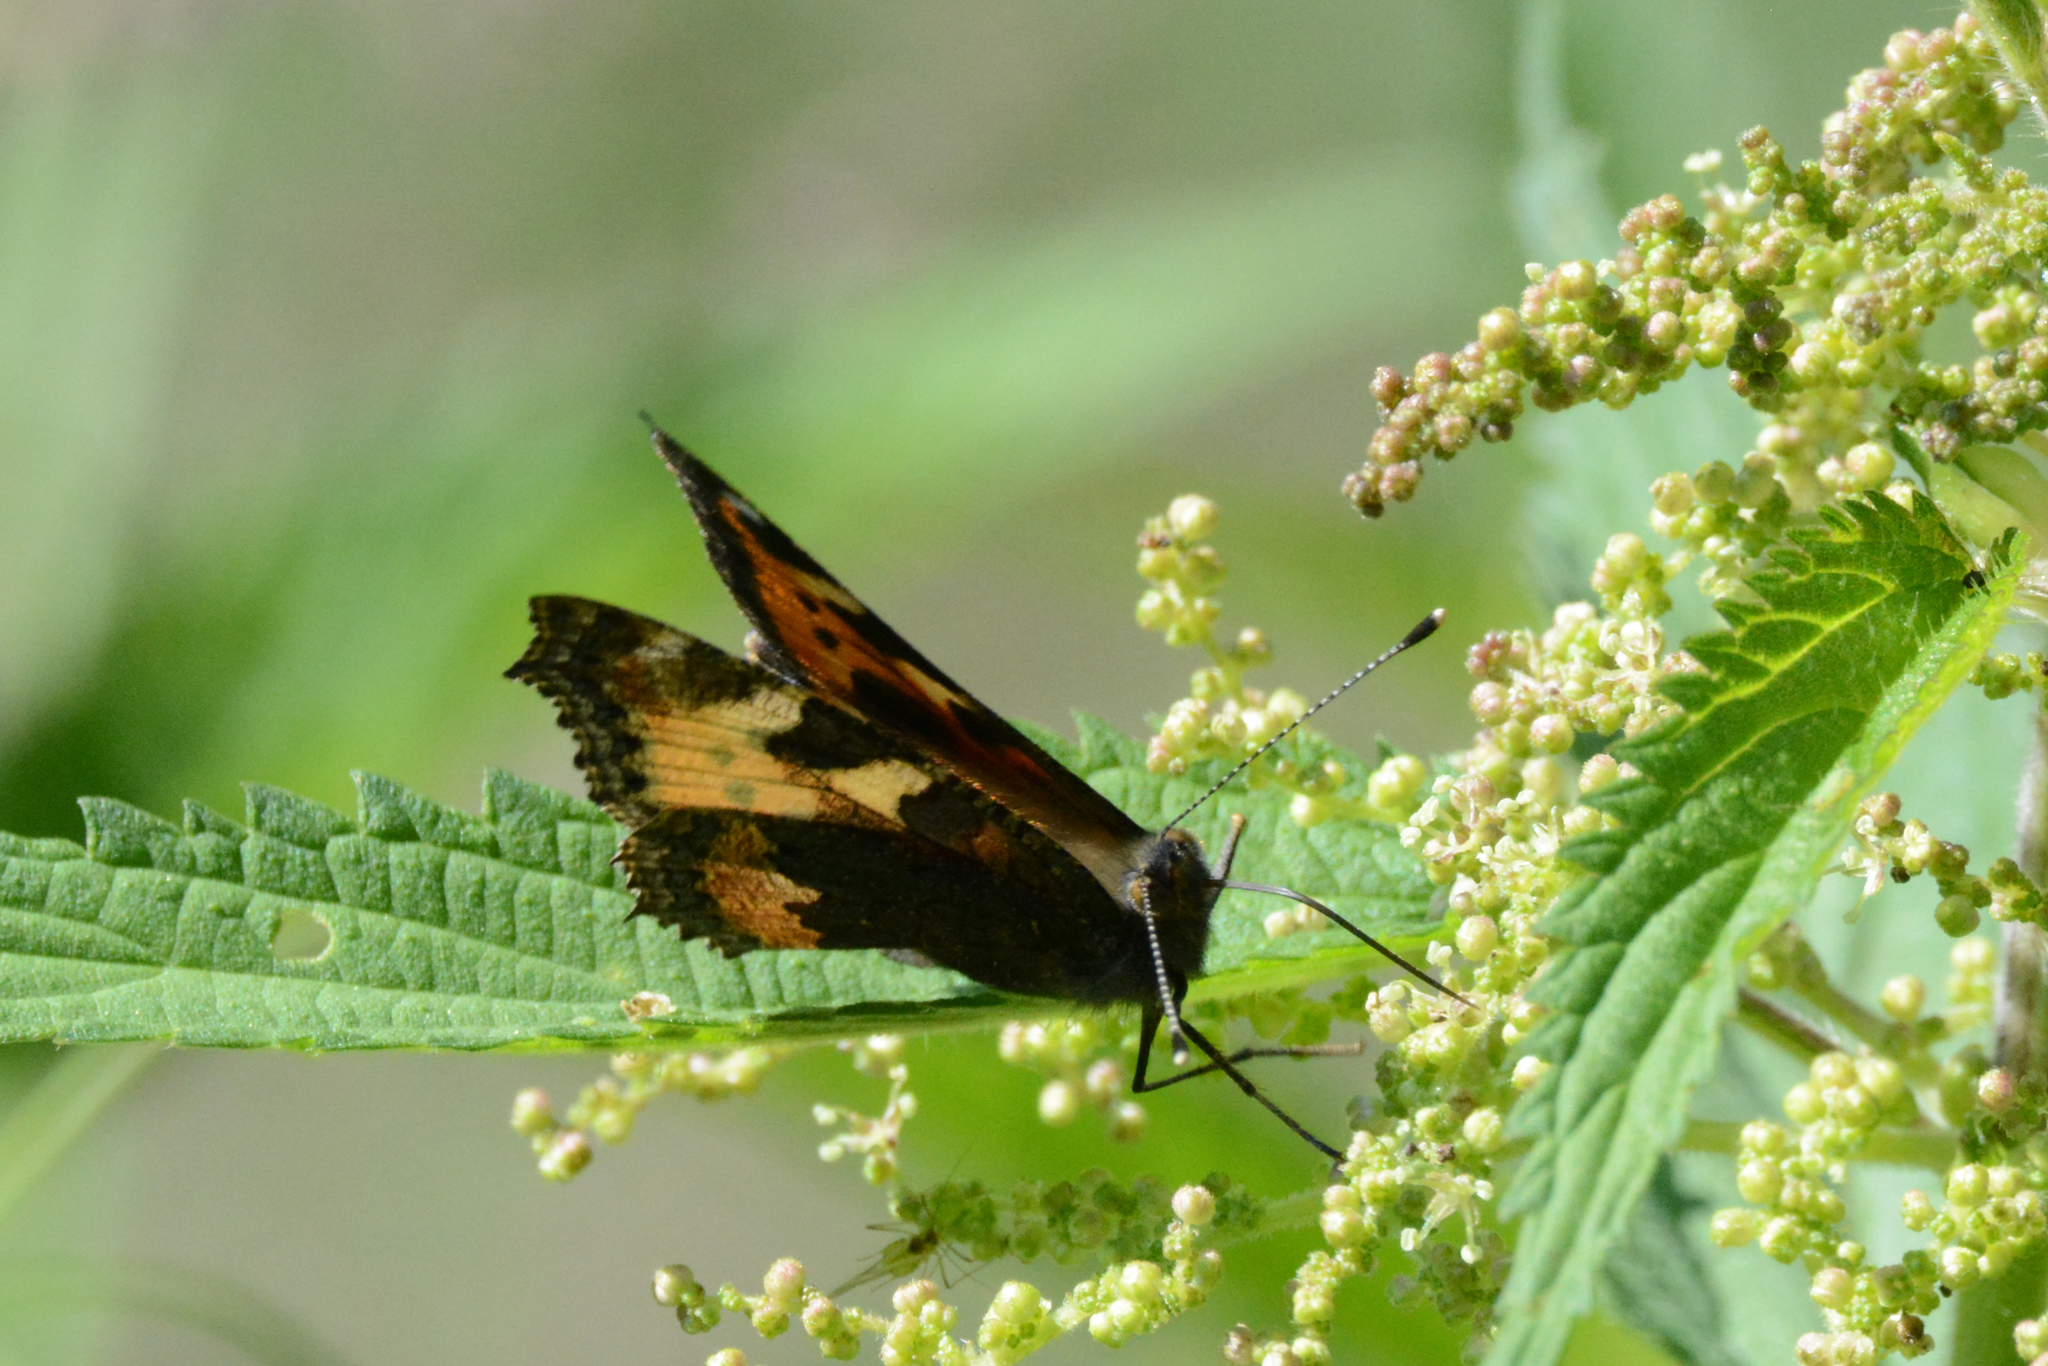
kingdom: Animalia
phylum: Arthropoda
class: Insecta
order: Lepidoptera
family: Nymphalidae
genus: Aglais
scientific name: Aglais urticae
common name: Small tortoiseshell
